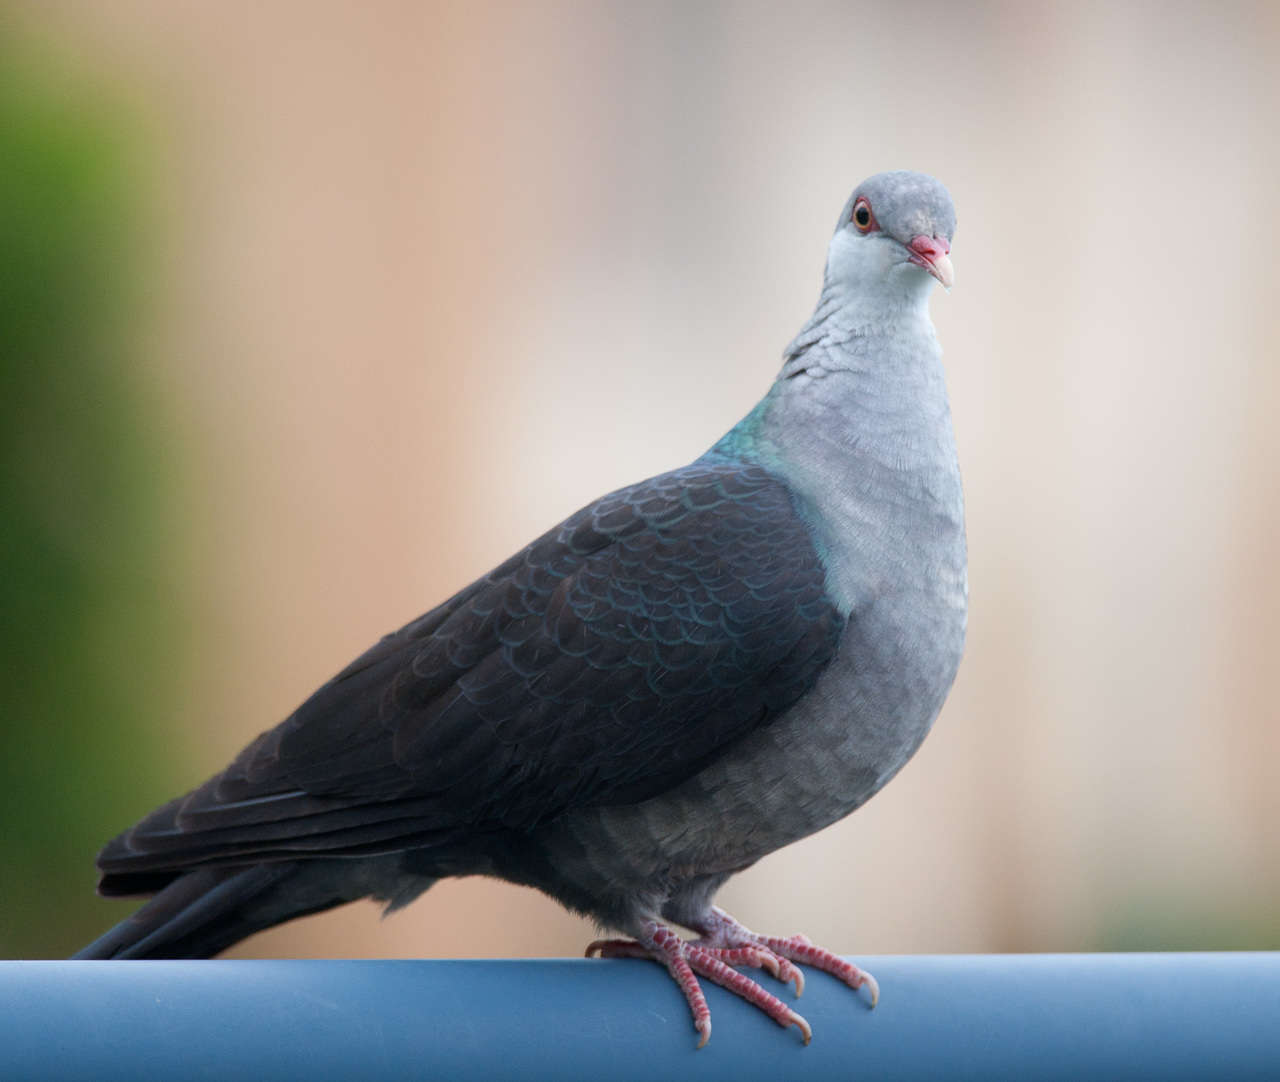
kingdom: Animalia
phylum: Chordata
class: Aves
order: Columbiformes
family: Columbidae
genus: Columba
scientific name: Columba leucomela
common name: White-headed pigeon
